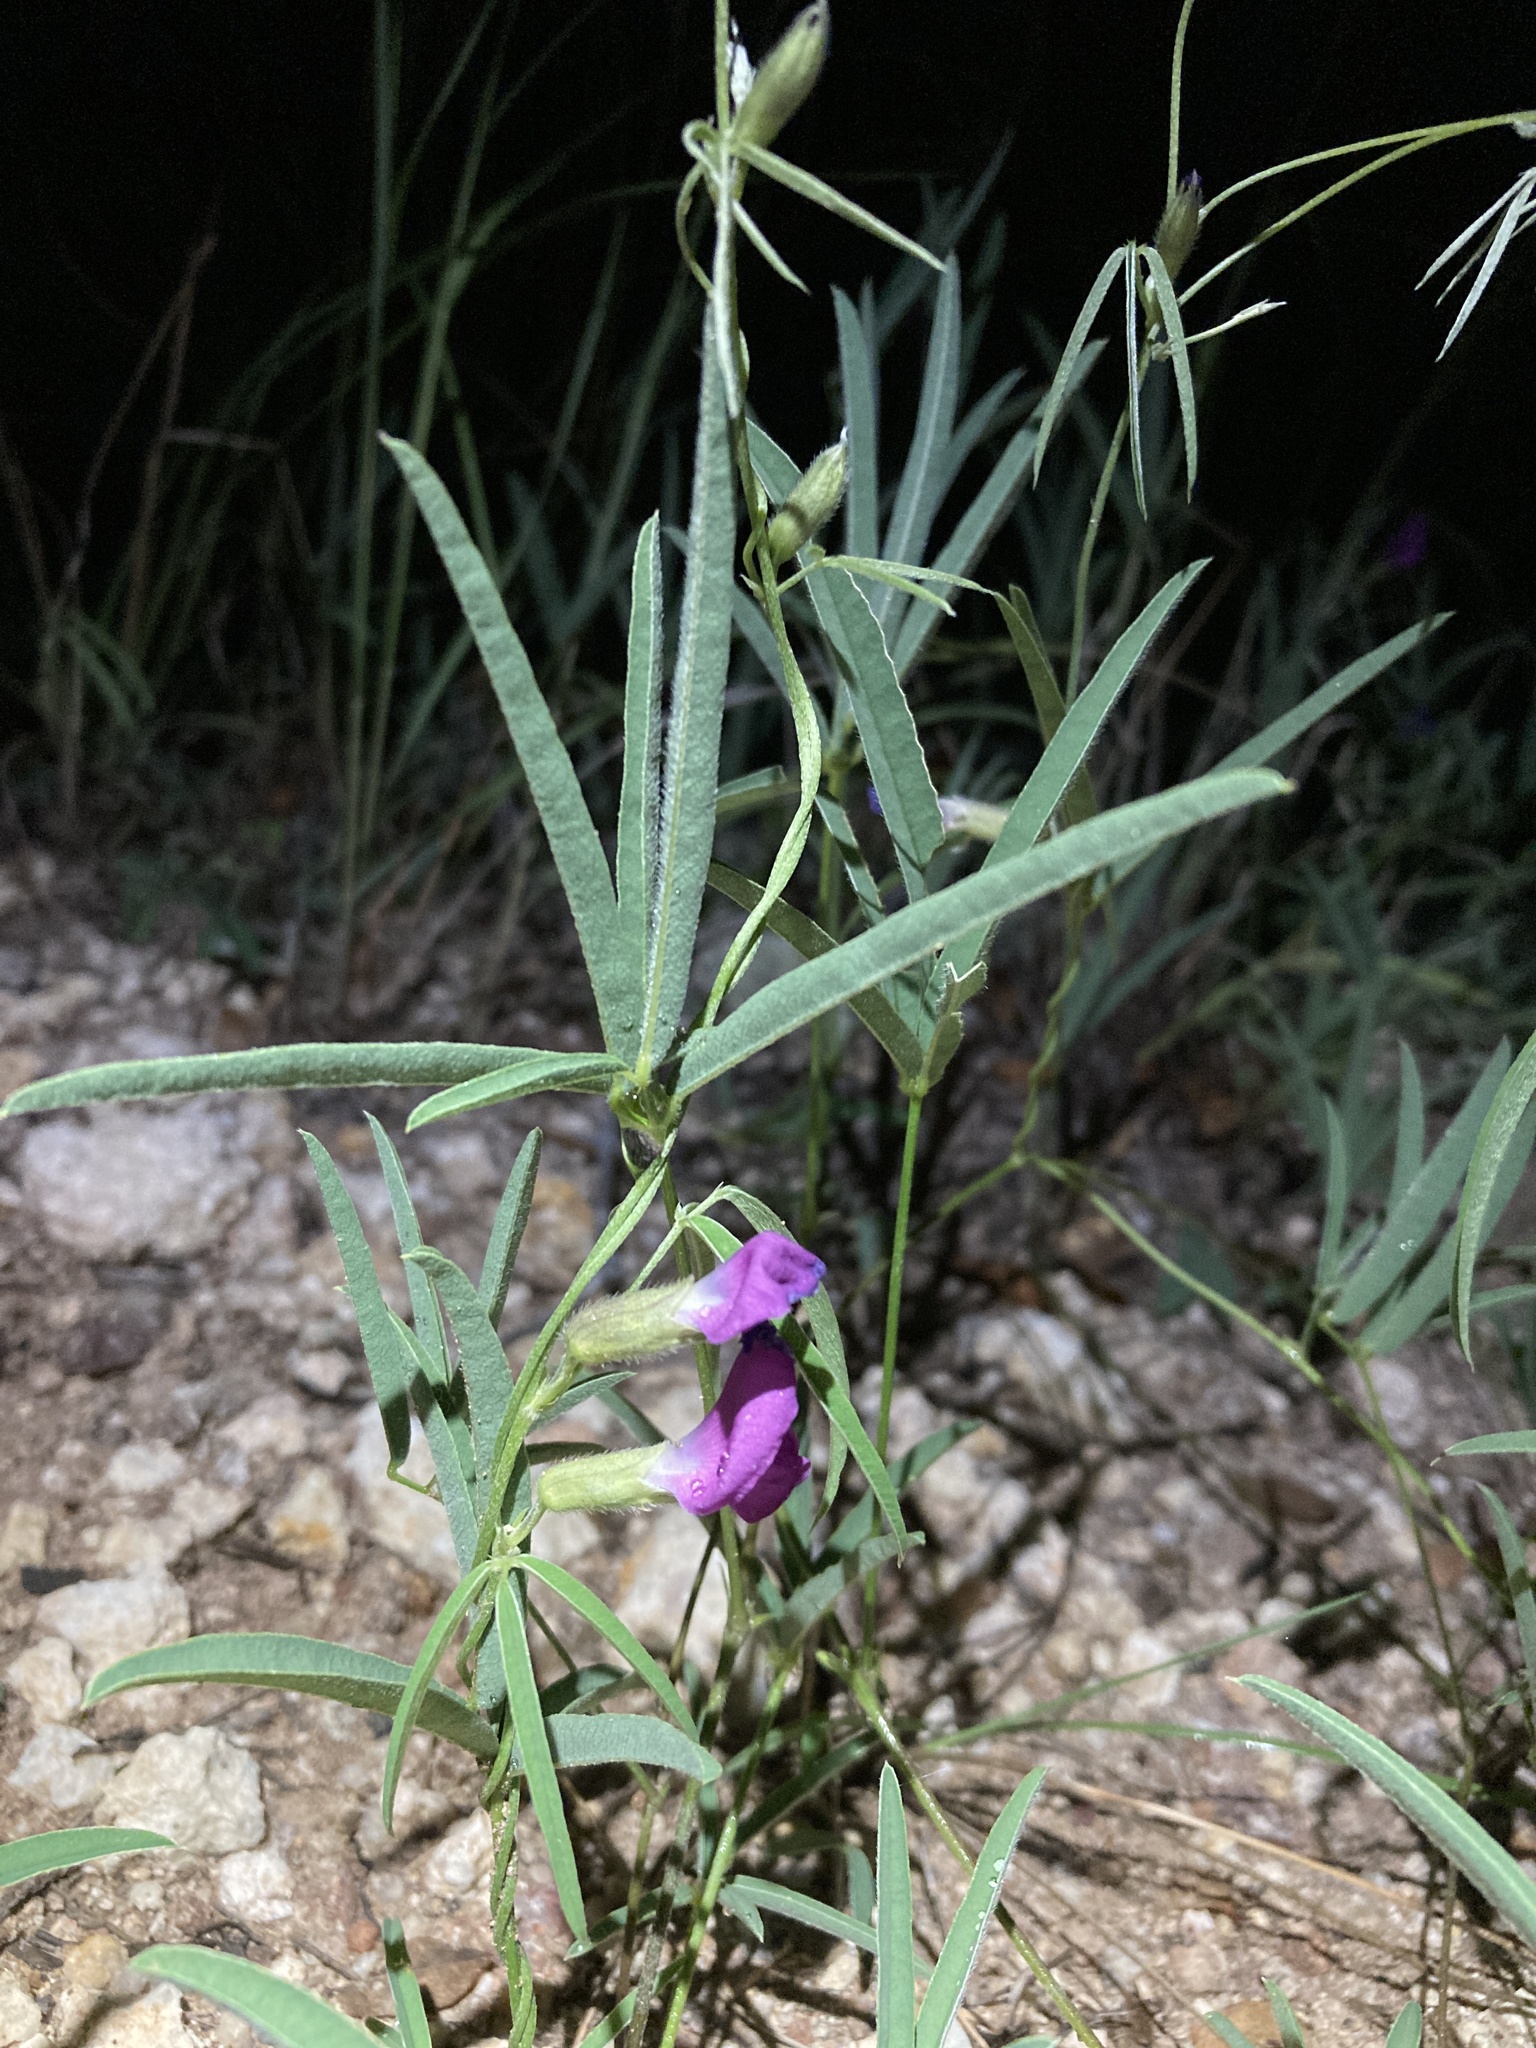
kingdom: Plantae
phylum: Tracheophyta
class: Magnoliopsida
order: Fabales
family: Fabaceae
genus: Cologania
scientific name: Cologania angustifolia
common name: Longleaf cologania
